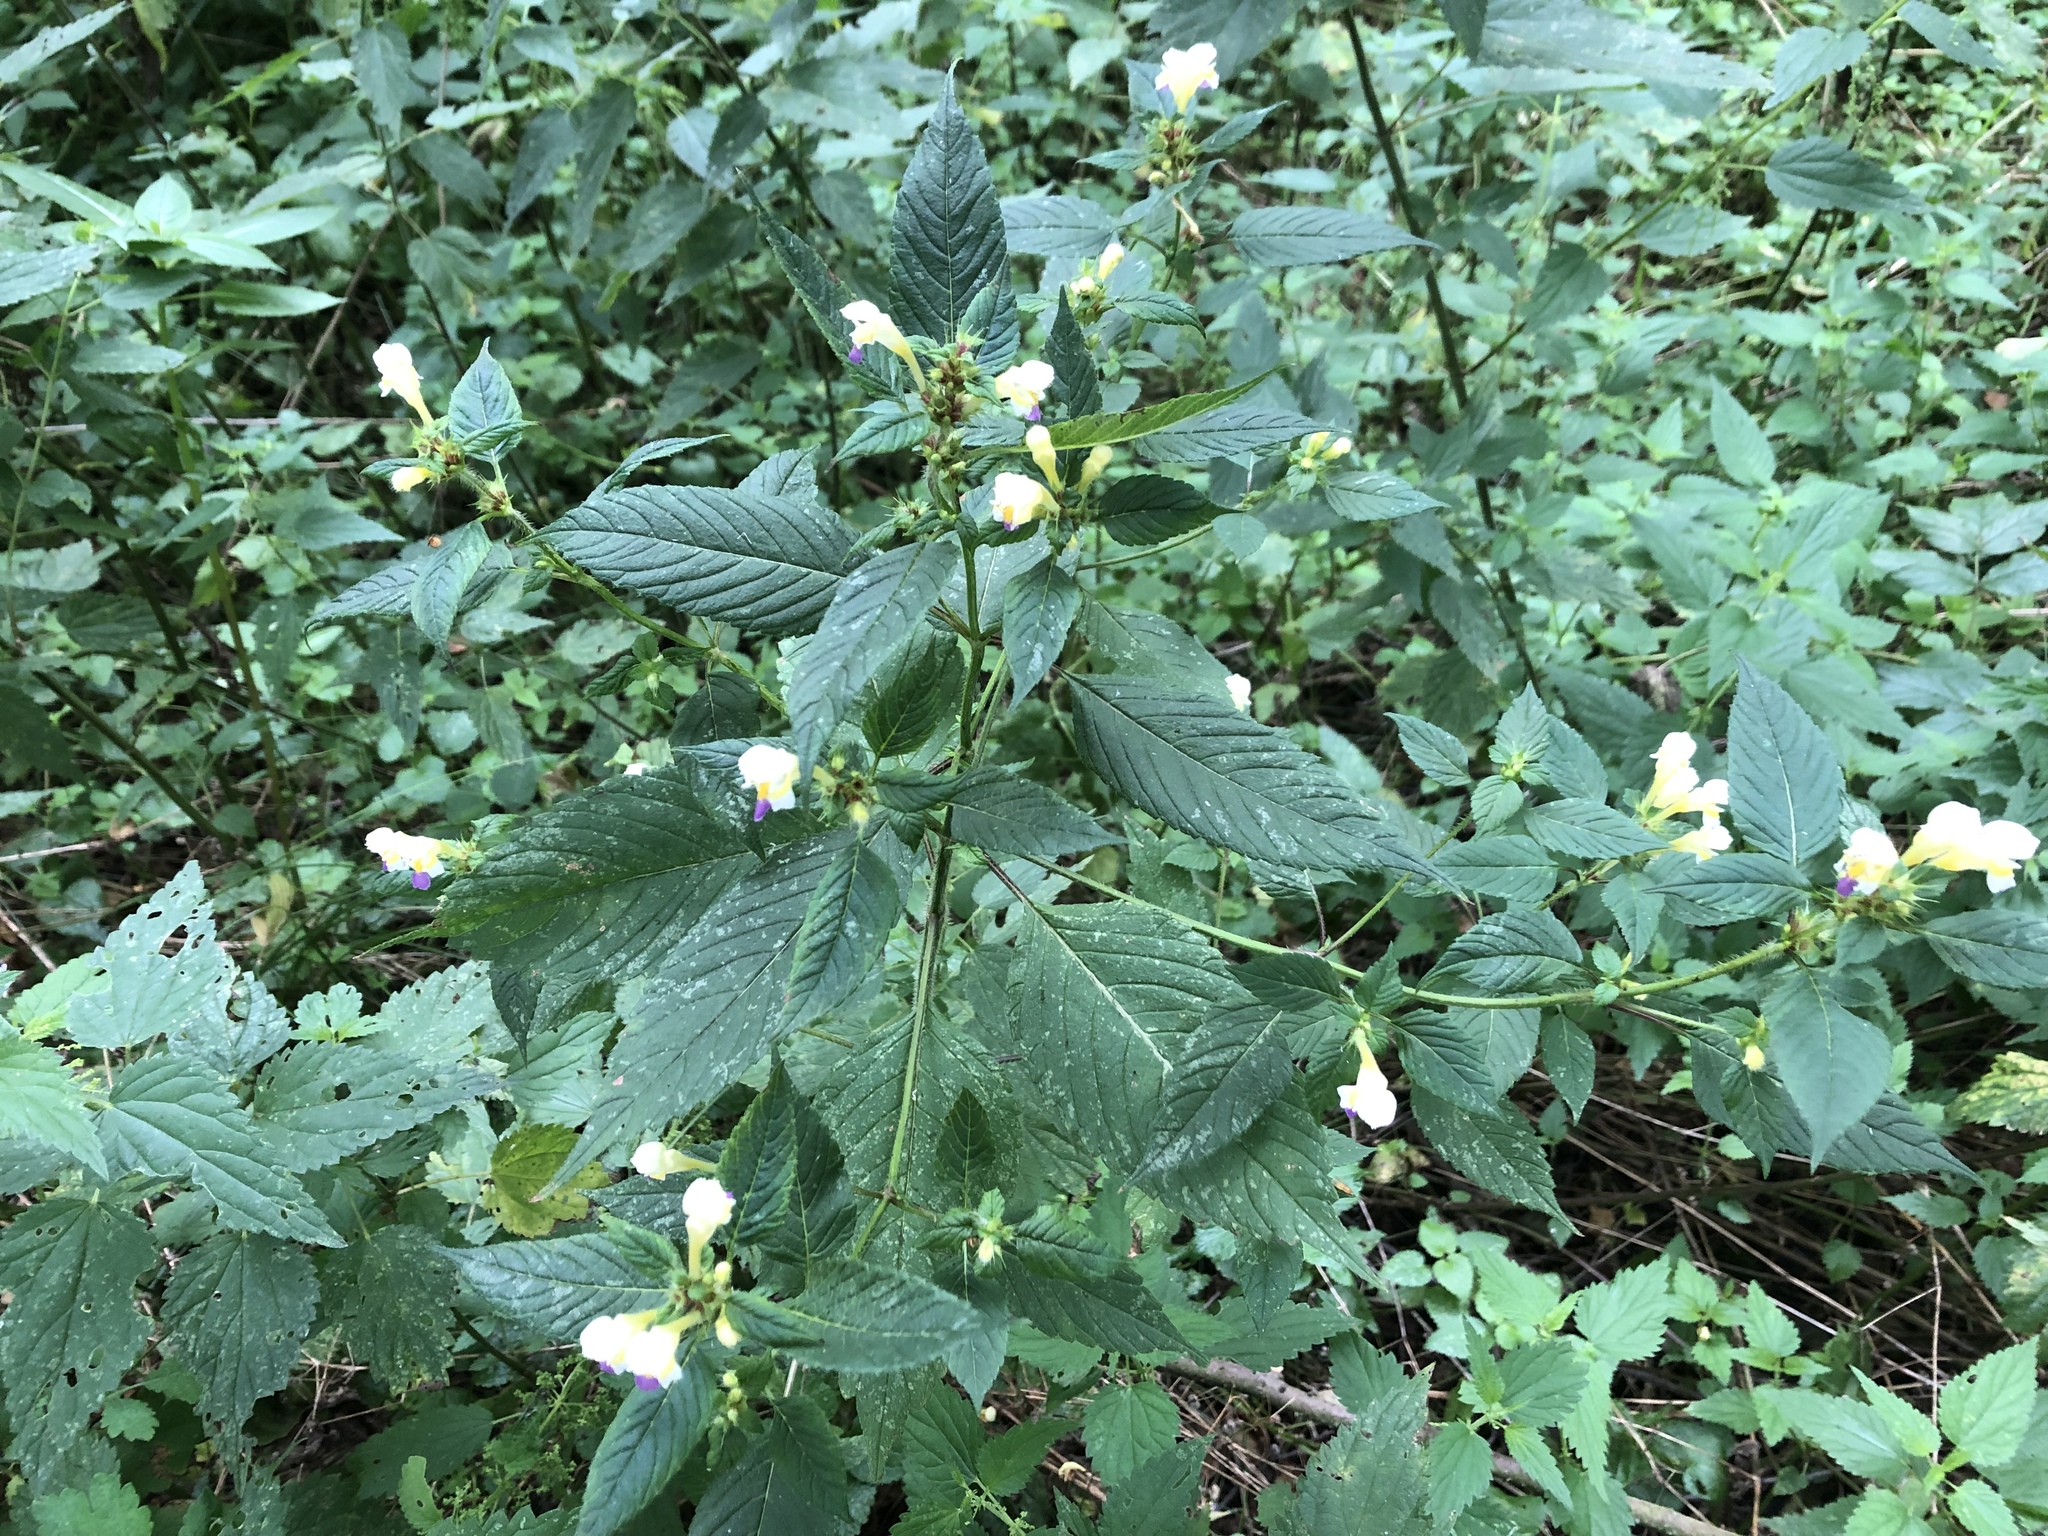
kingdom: Plantae
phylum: Tracheophyta
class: Magnoliopsida
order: Lamiales
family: Lamiaceae
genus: Galeopsis
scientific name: Galeopsis speciosa
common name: Large-flowered hemp-nettle
